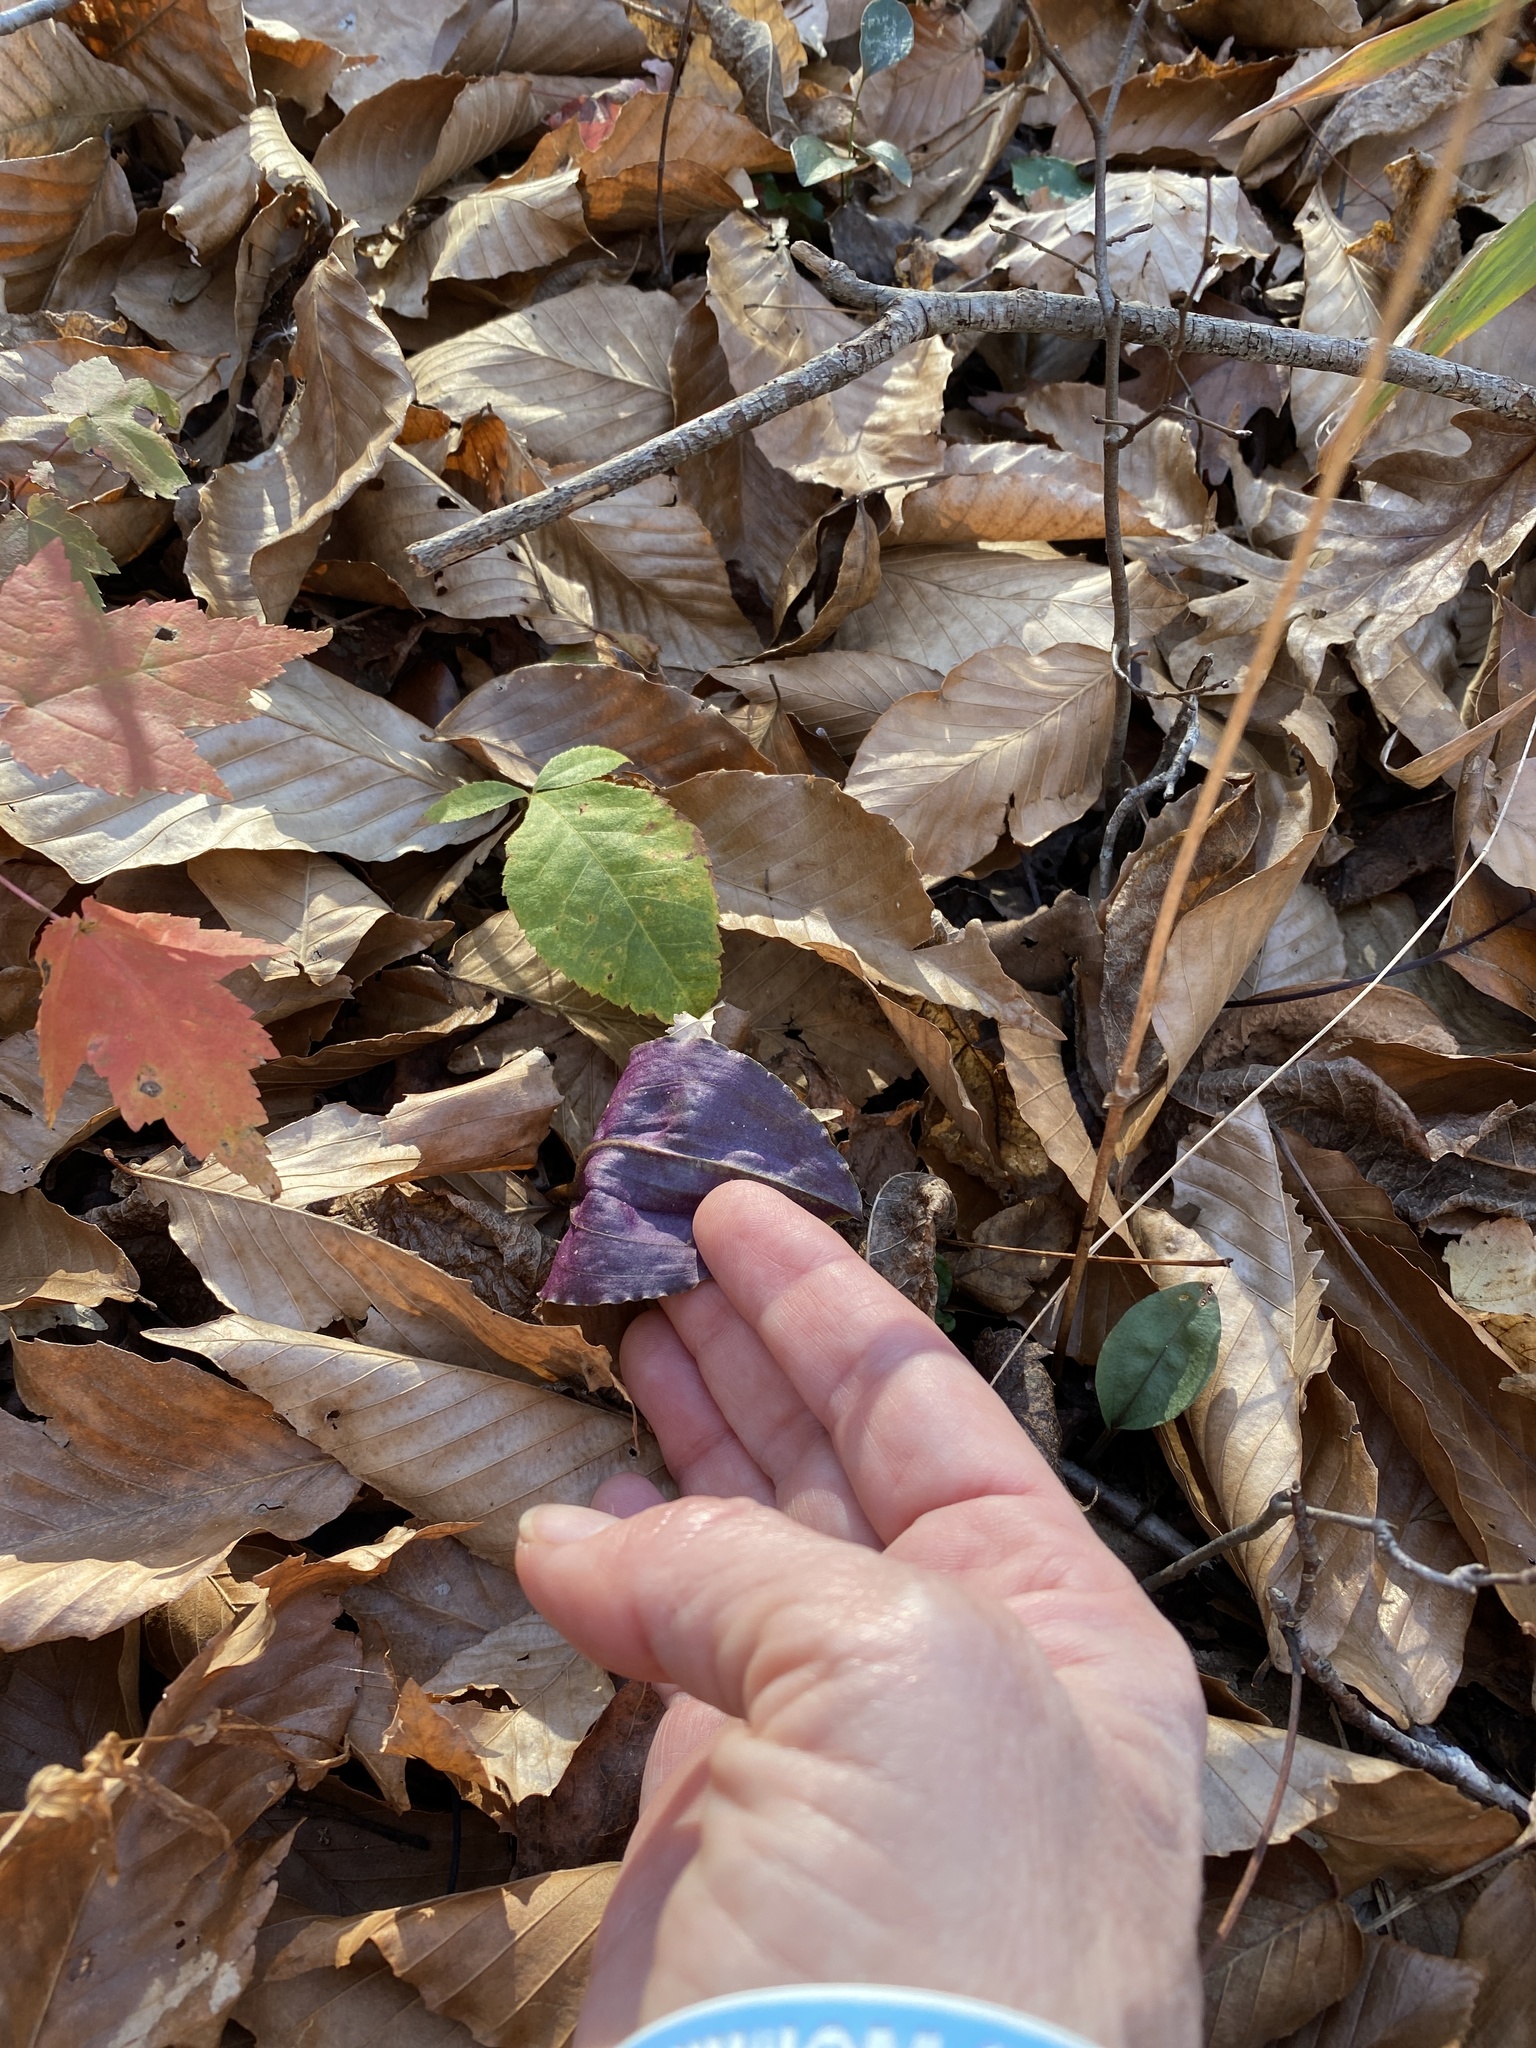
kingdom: Plantae
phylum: Tracheophyta
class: Liliopsida
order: Asparagales
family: Orchidaceae
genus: Tipularia
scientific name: Tipularia discolor
